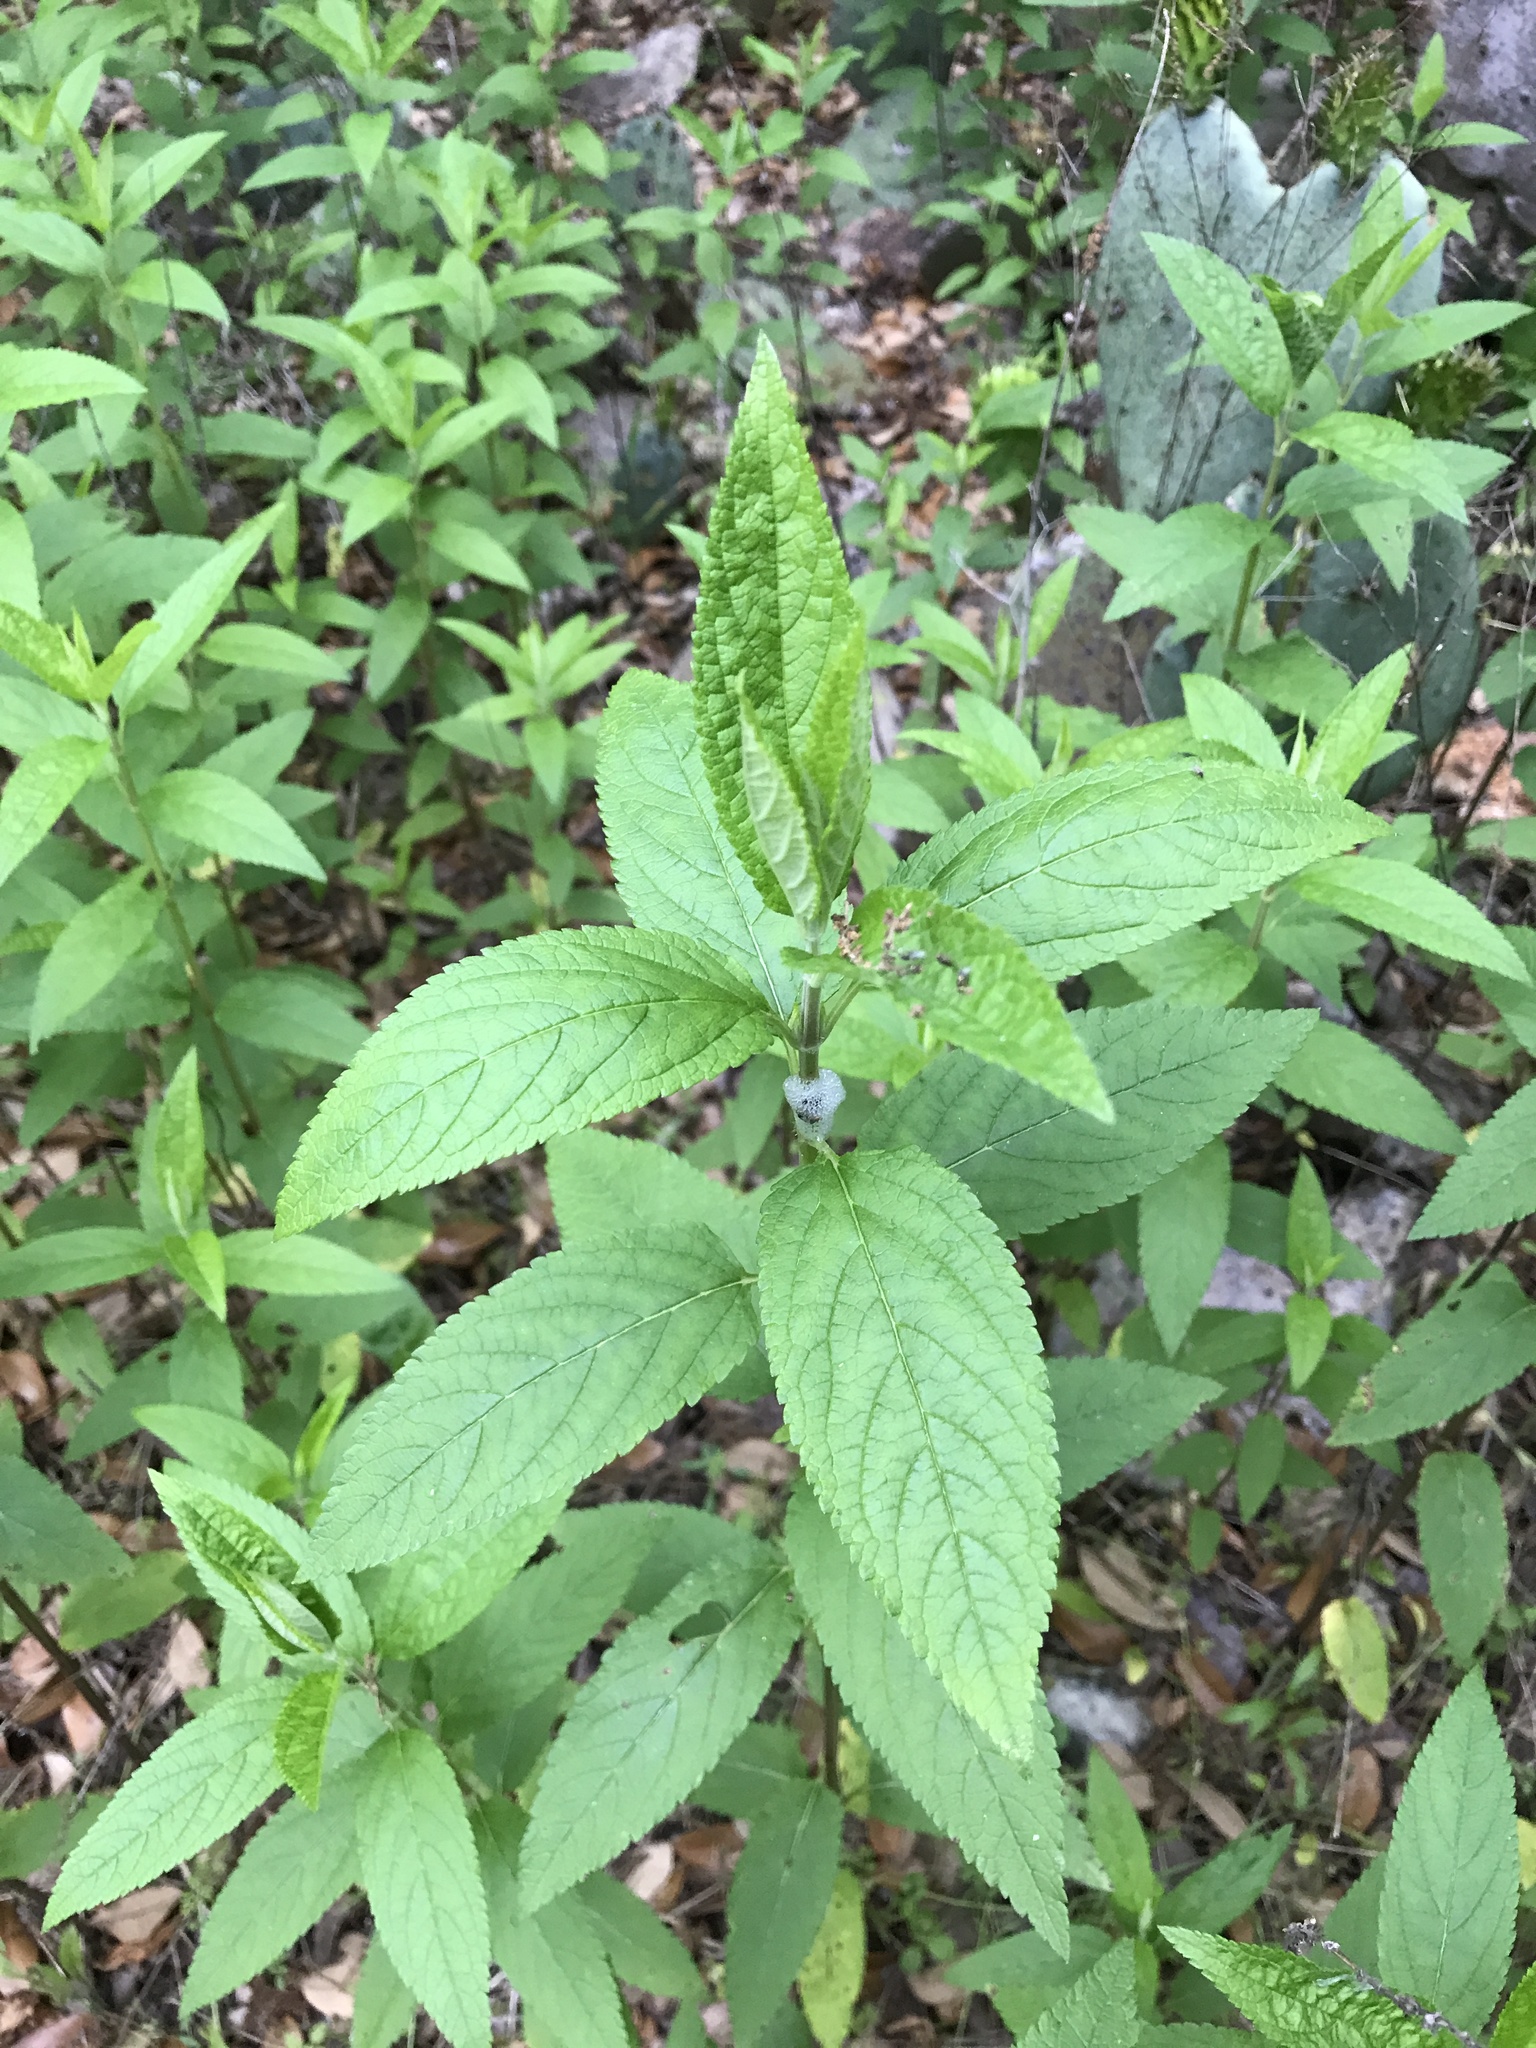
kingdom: Plantae
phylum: Tracheophyta
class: Magnoliopsida
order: Lamiales
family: Lamiaceae
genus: Teucrium
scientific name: Teucrium canadense
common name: American germander
